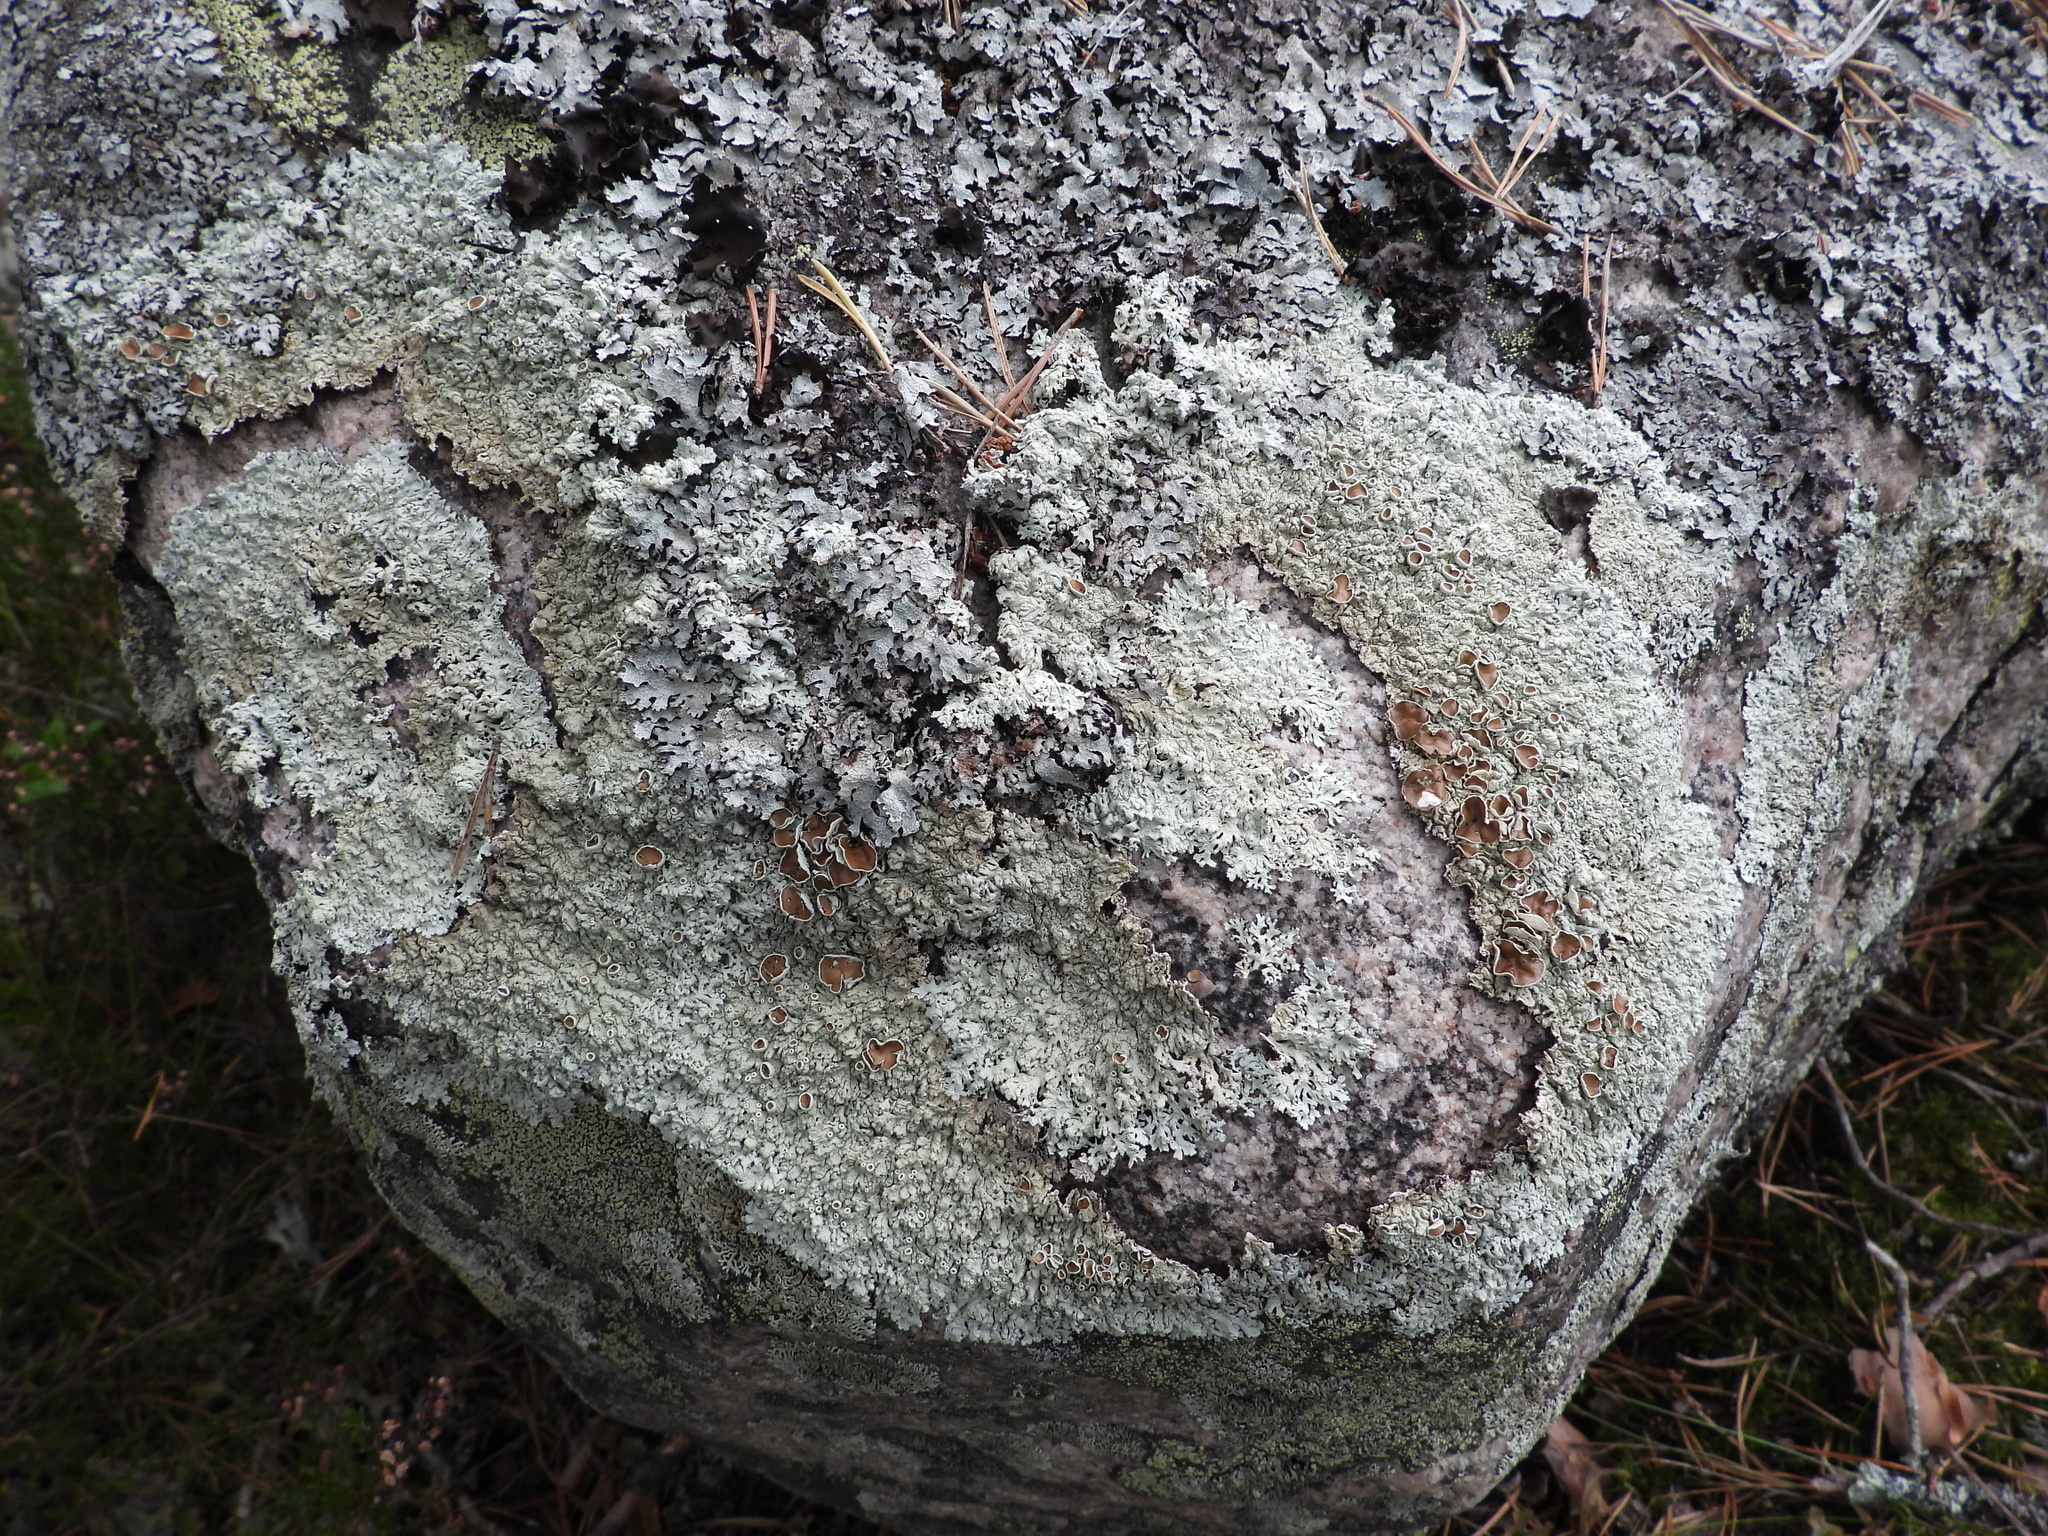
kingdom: Fungi
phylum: Ascomycota
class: Lecanoromycetes
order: Lecanorales
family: Parmeliaceae
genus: Arctoparmelia
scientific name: Arctoparmelia centrifuga
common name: Concentric ring lichen
